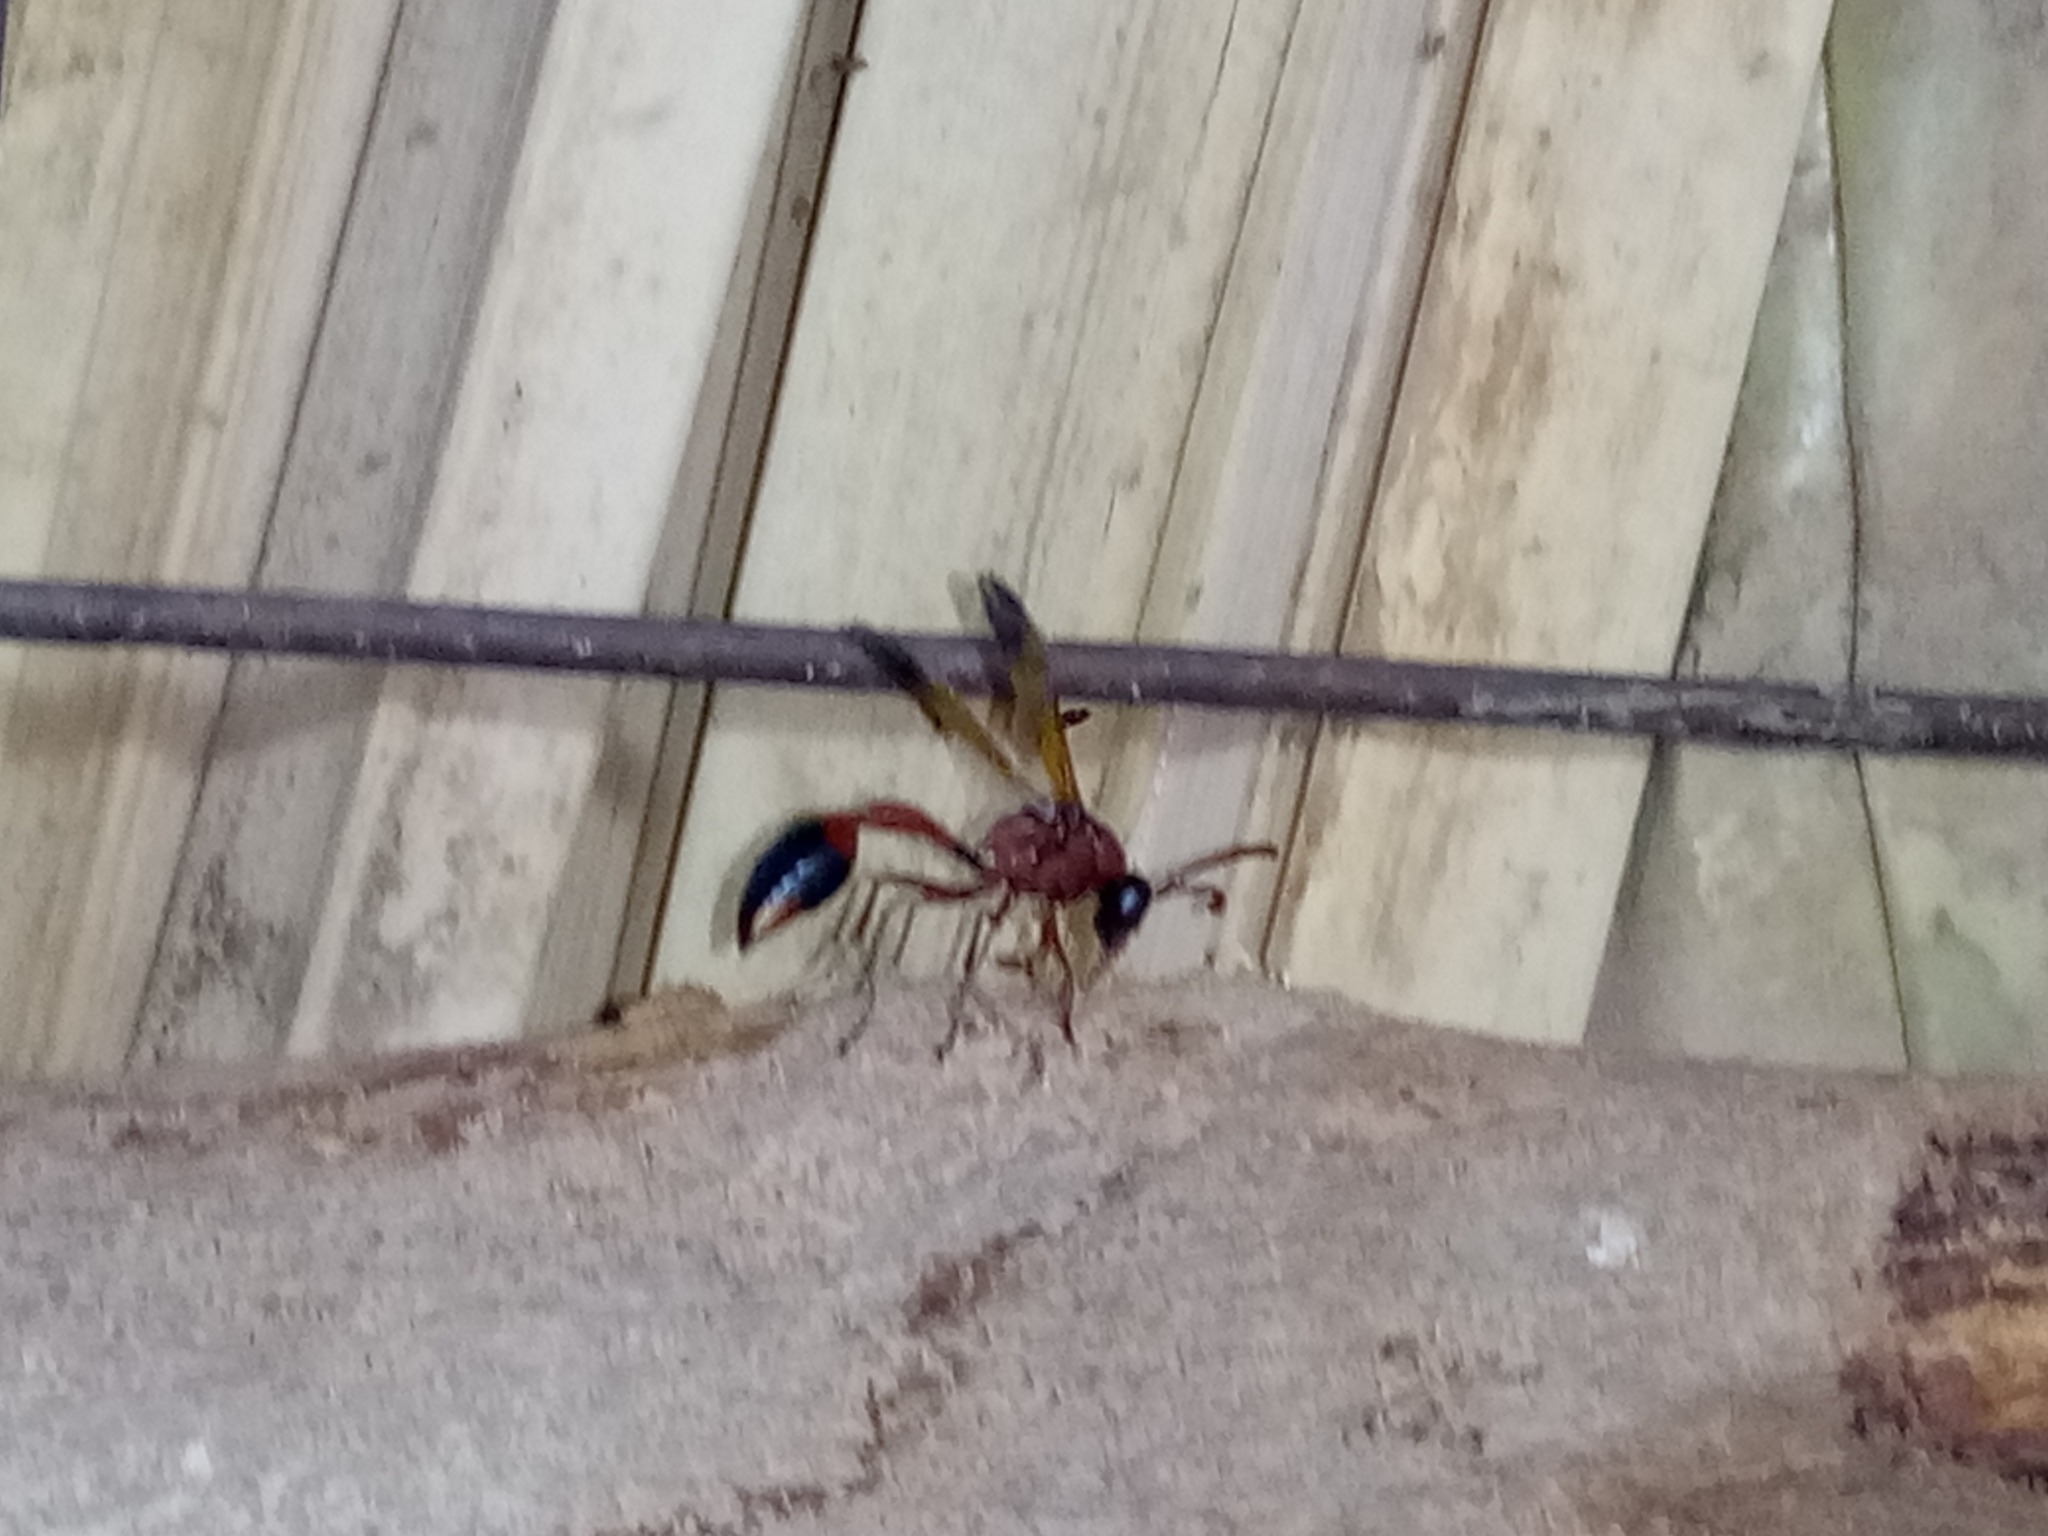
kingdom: Animalia
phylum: Arthropoda
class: Insecta
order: Hymenoptera
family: Eumenidae
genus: Delta
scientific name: Delta dimidiatipenne
